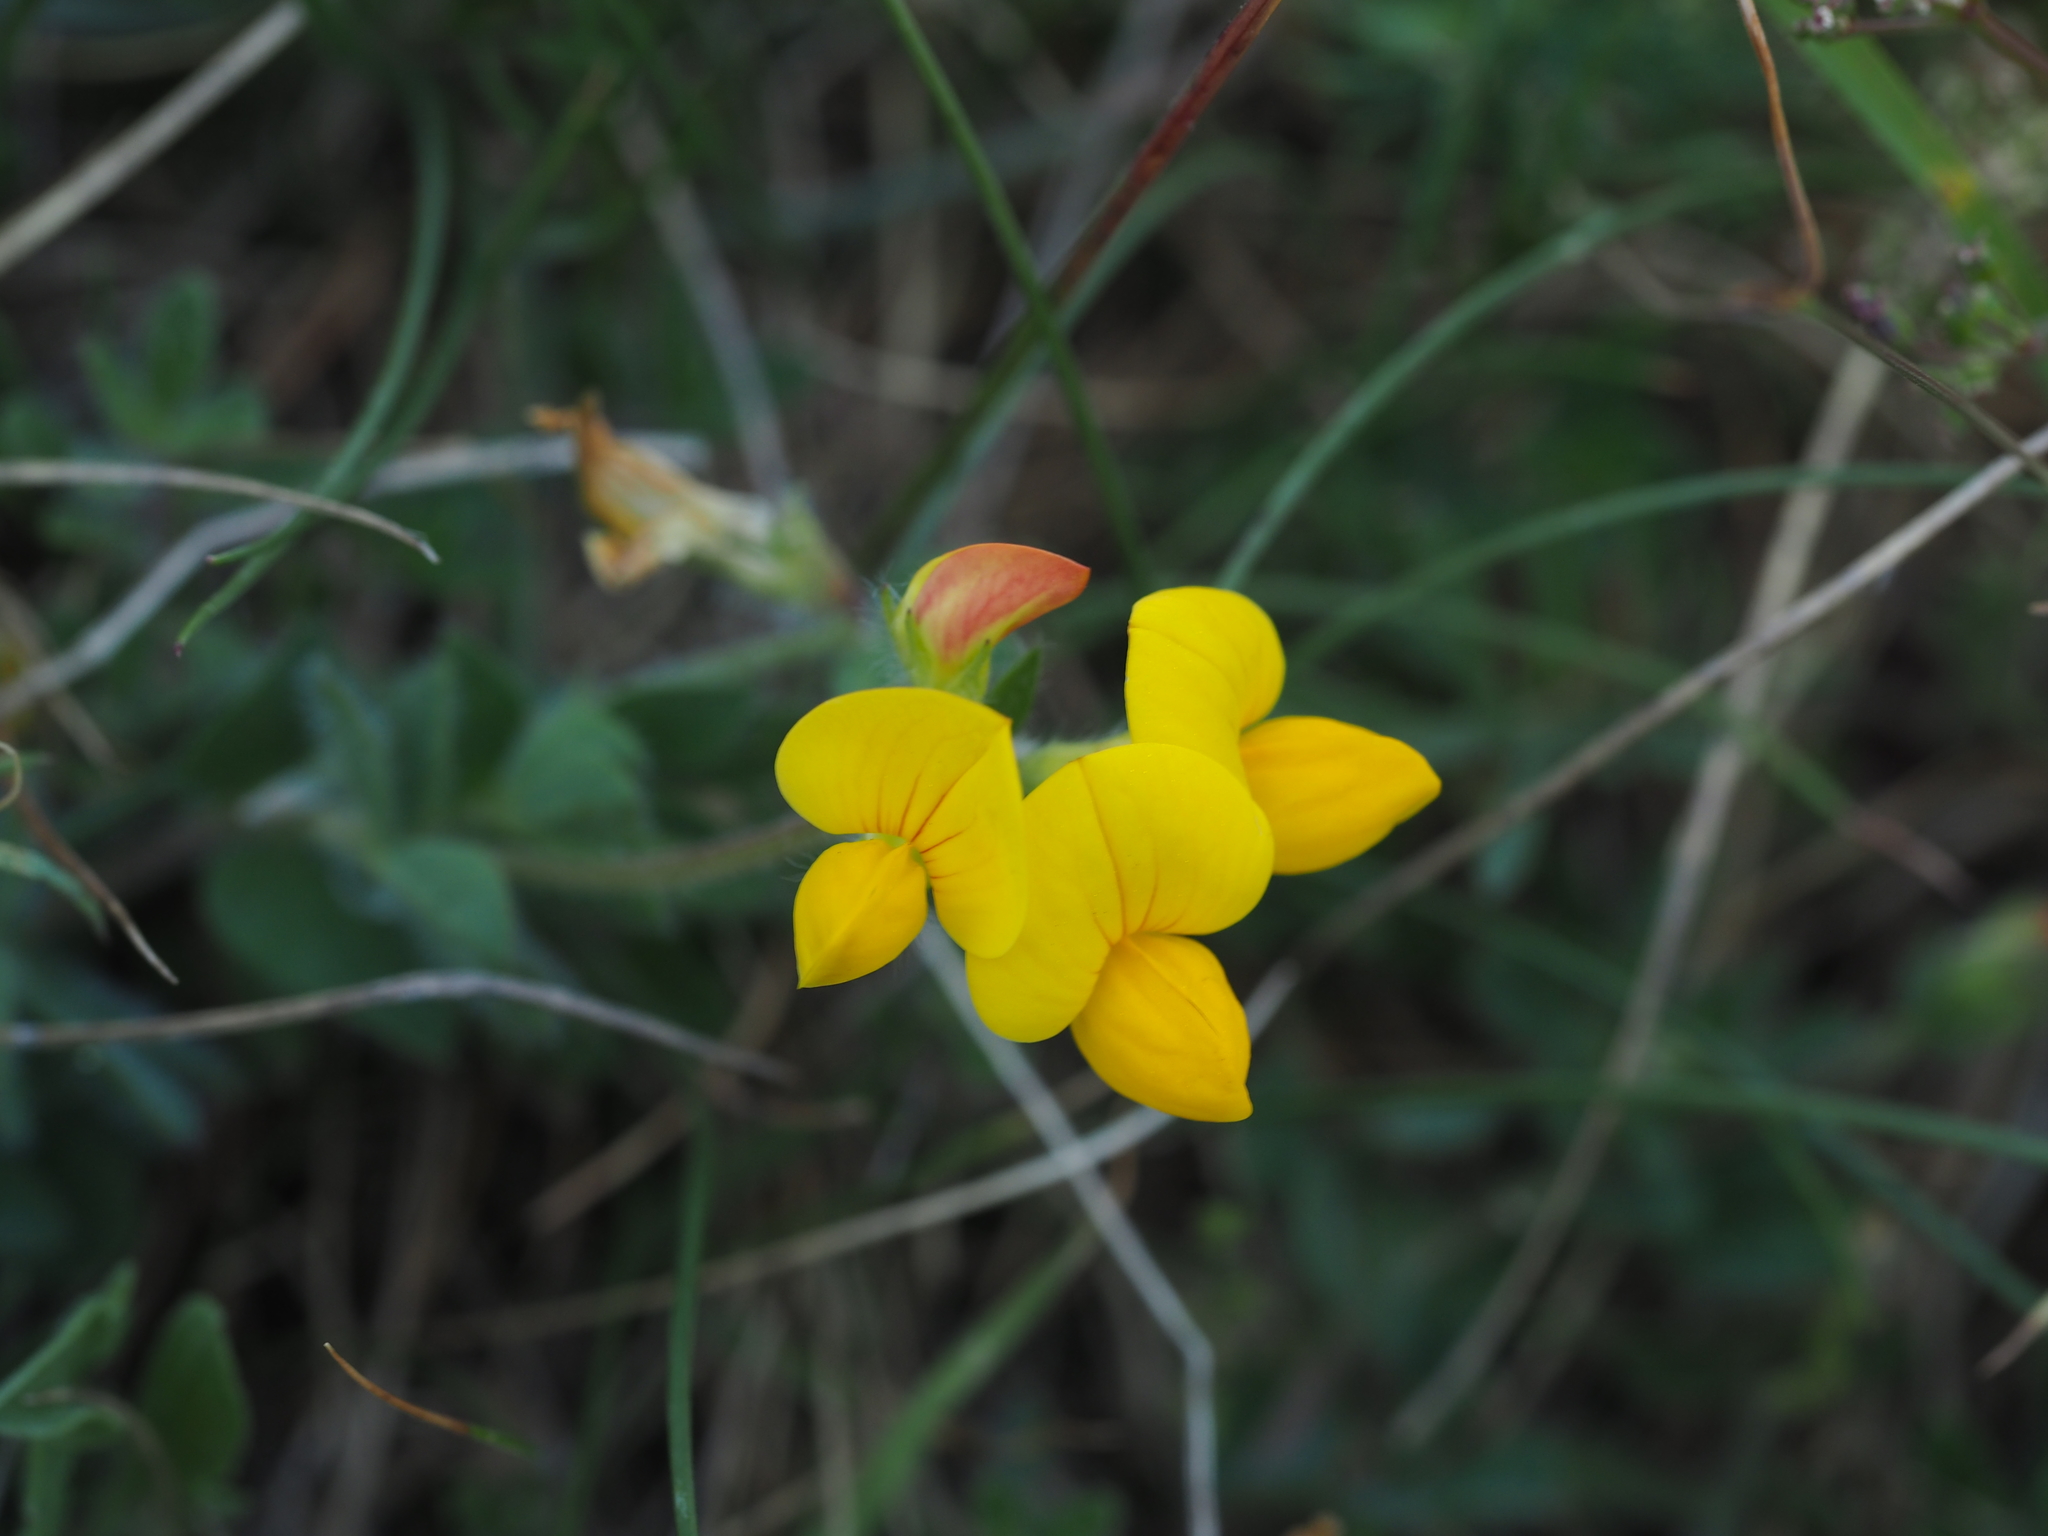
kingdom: Plantae
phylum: Tracheophyta
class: Magnoliopsida
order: Fabales
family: Fabaceae
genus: Lotus
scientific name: Lotus borbasii
